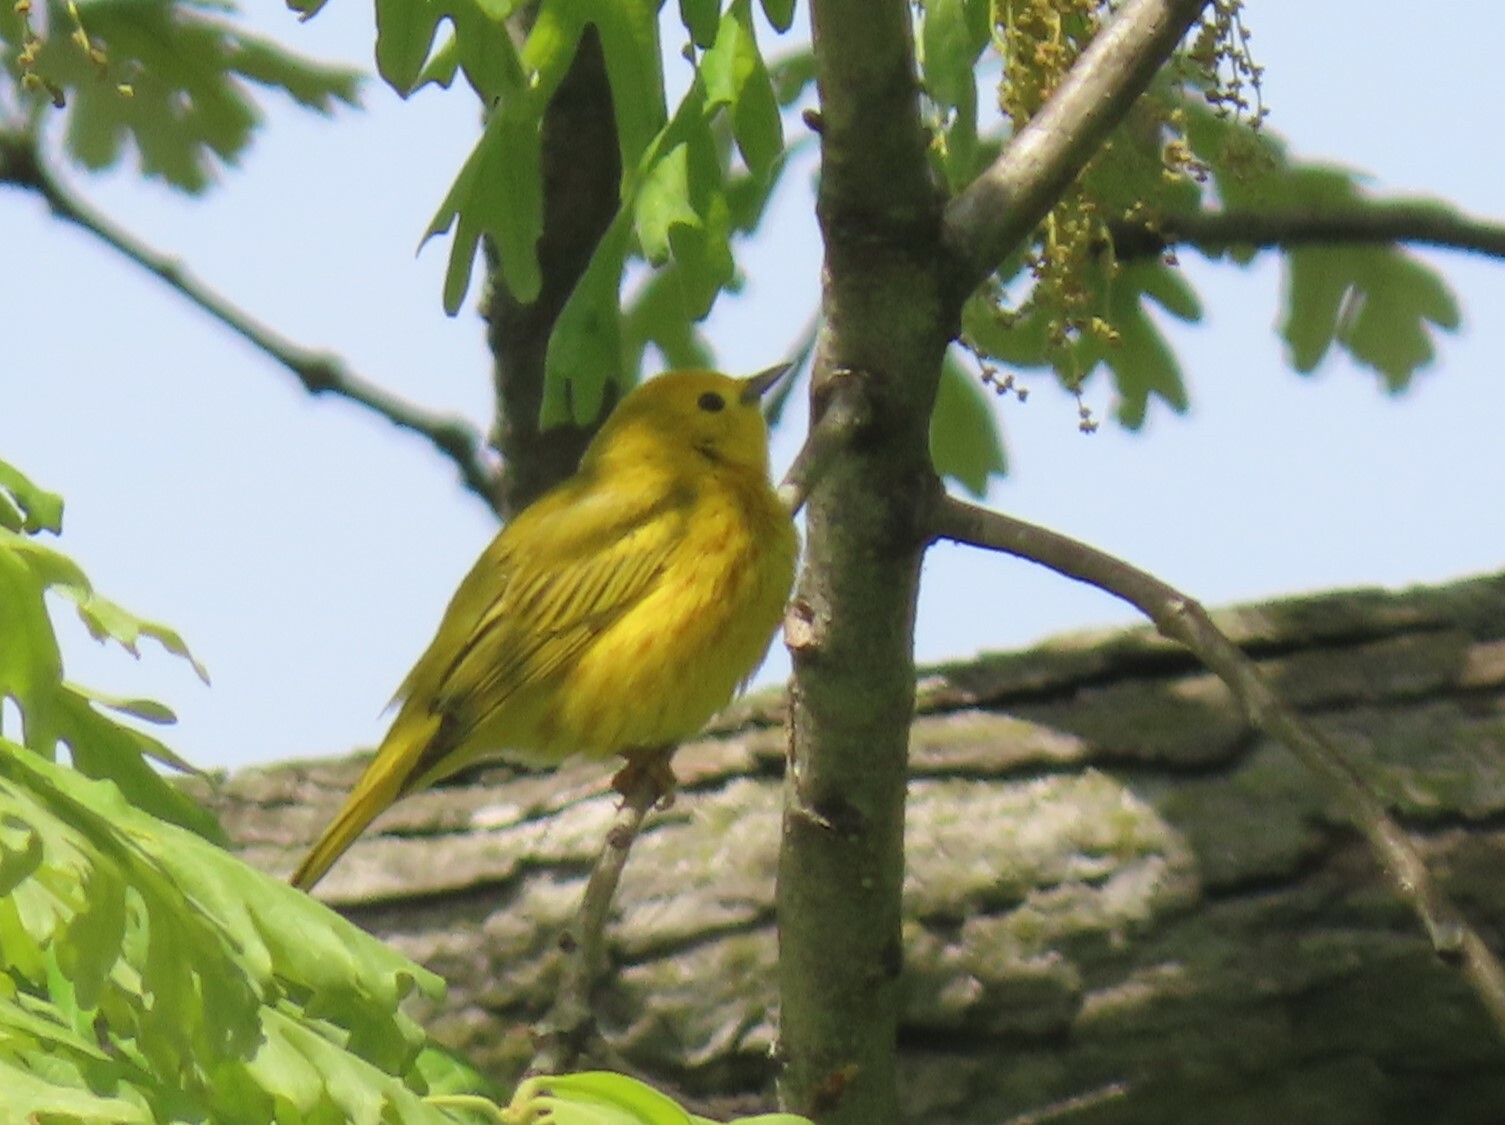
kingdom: Animalia
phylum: Chordata
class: Aves
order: Passeriformes
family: Parulidae
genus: Setophaga
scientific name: Setophaga petechia
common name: Yellow warbler
